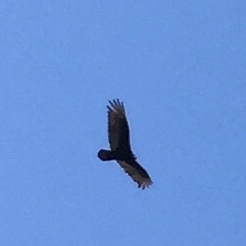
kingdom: Animalia
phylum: Chordata
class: Aves
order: Accipitriformes
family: Cathartidae
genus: Cathartes
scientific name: Cathartes aura
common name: Turkey vulture
